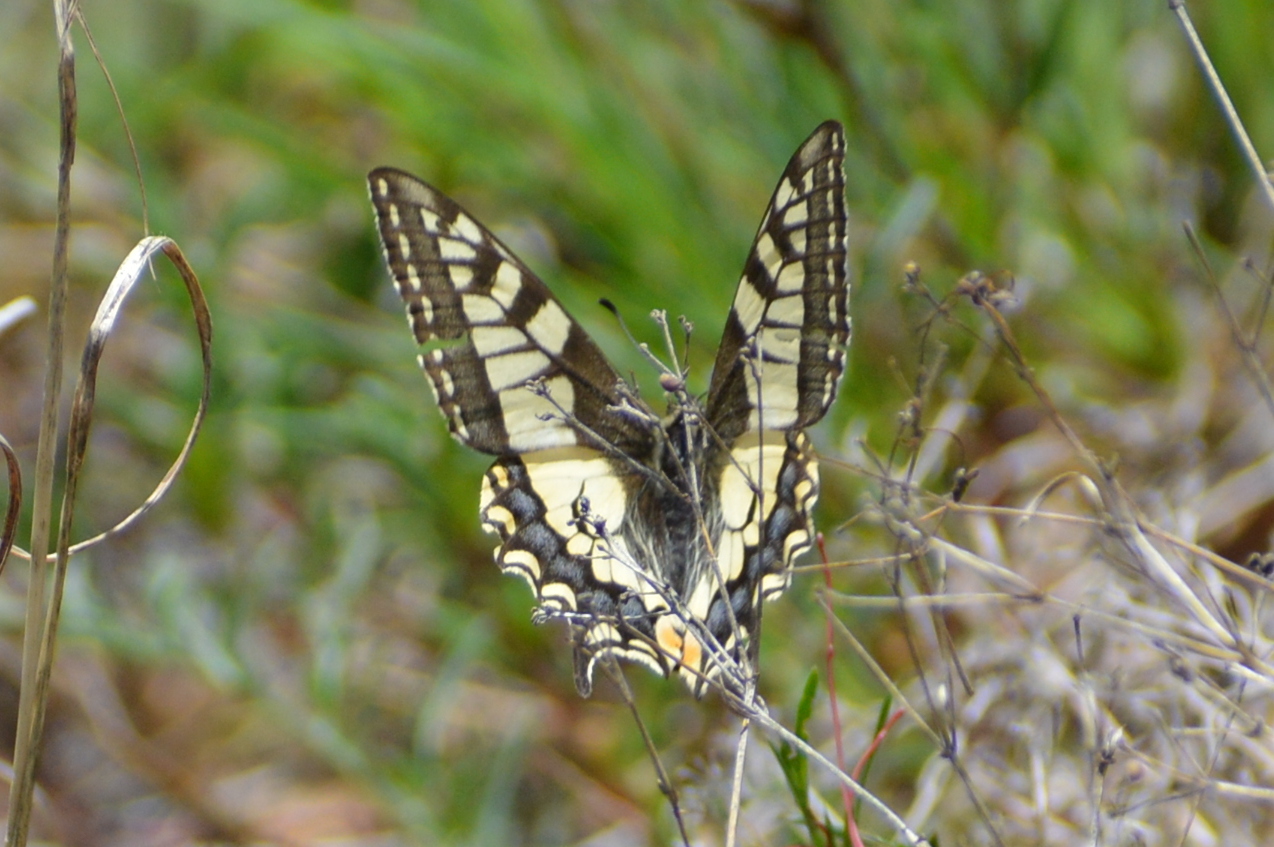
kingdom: Animalia
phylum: Arthropoda
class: Insecta
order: Lepidoptera
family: Papilionidae
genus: Papilio
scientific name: Papilio machaon
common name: Swallowtail
